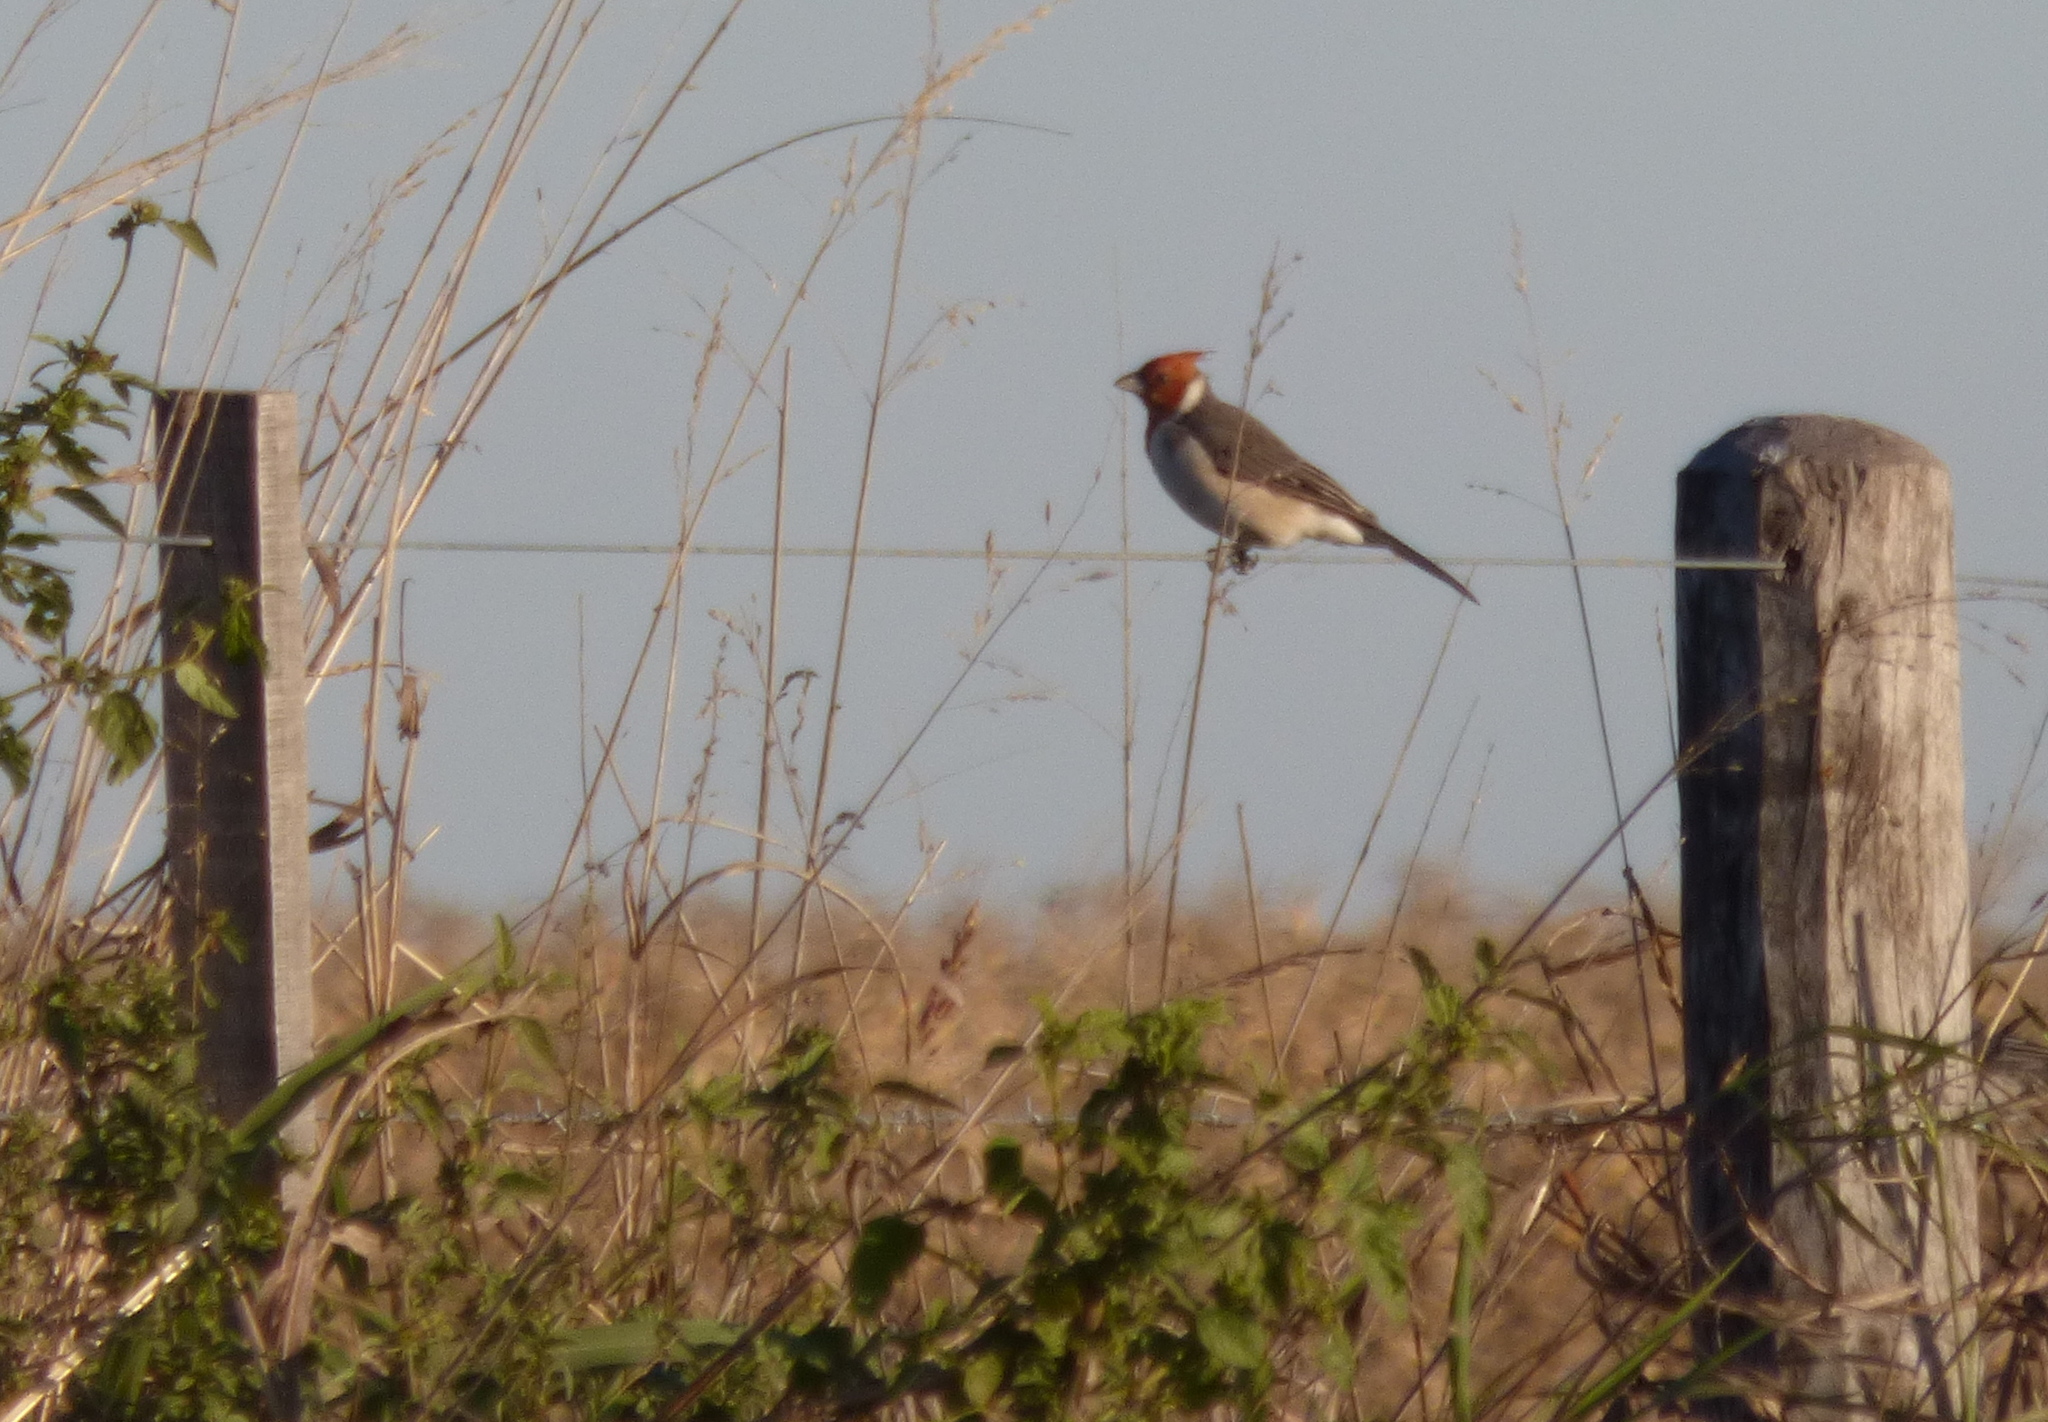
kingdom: Animalia
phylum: Chordata
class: Aves
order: Passeriformes
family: Thraupidae
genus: Paroaria
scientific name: Paroaria coronata
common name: Red-crested cardinal
